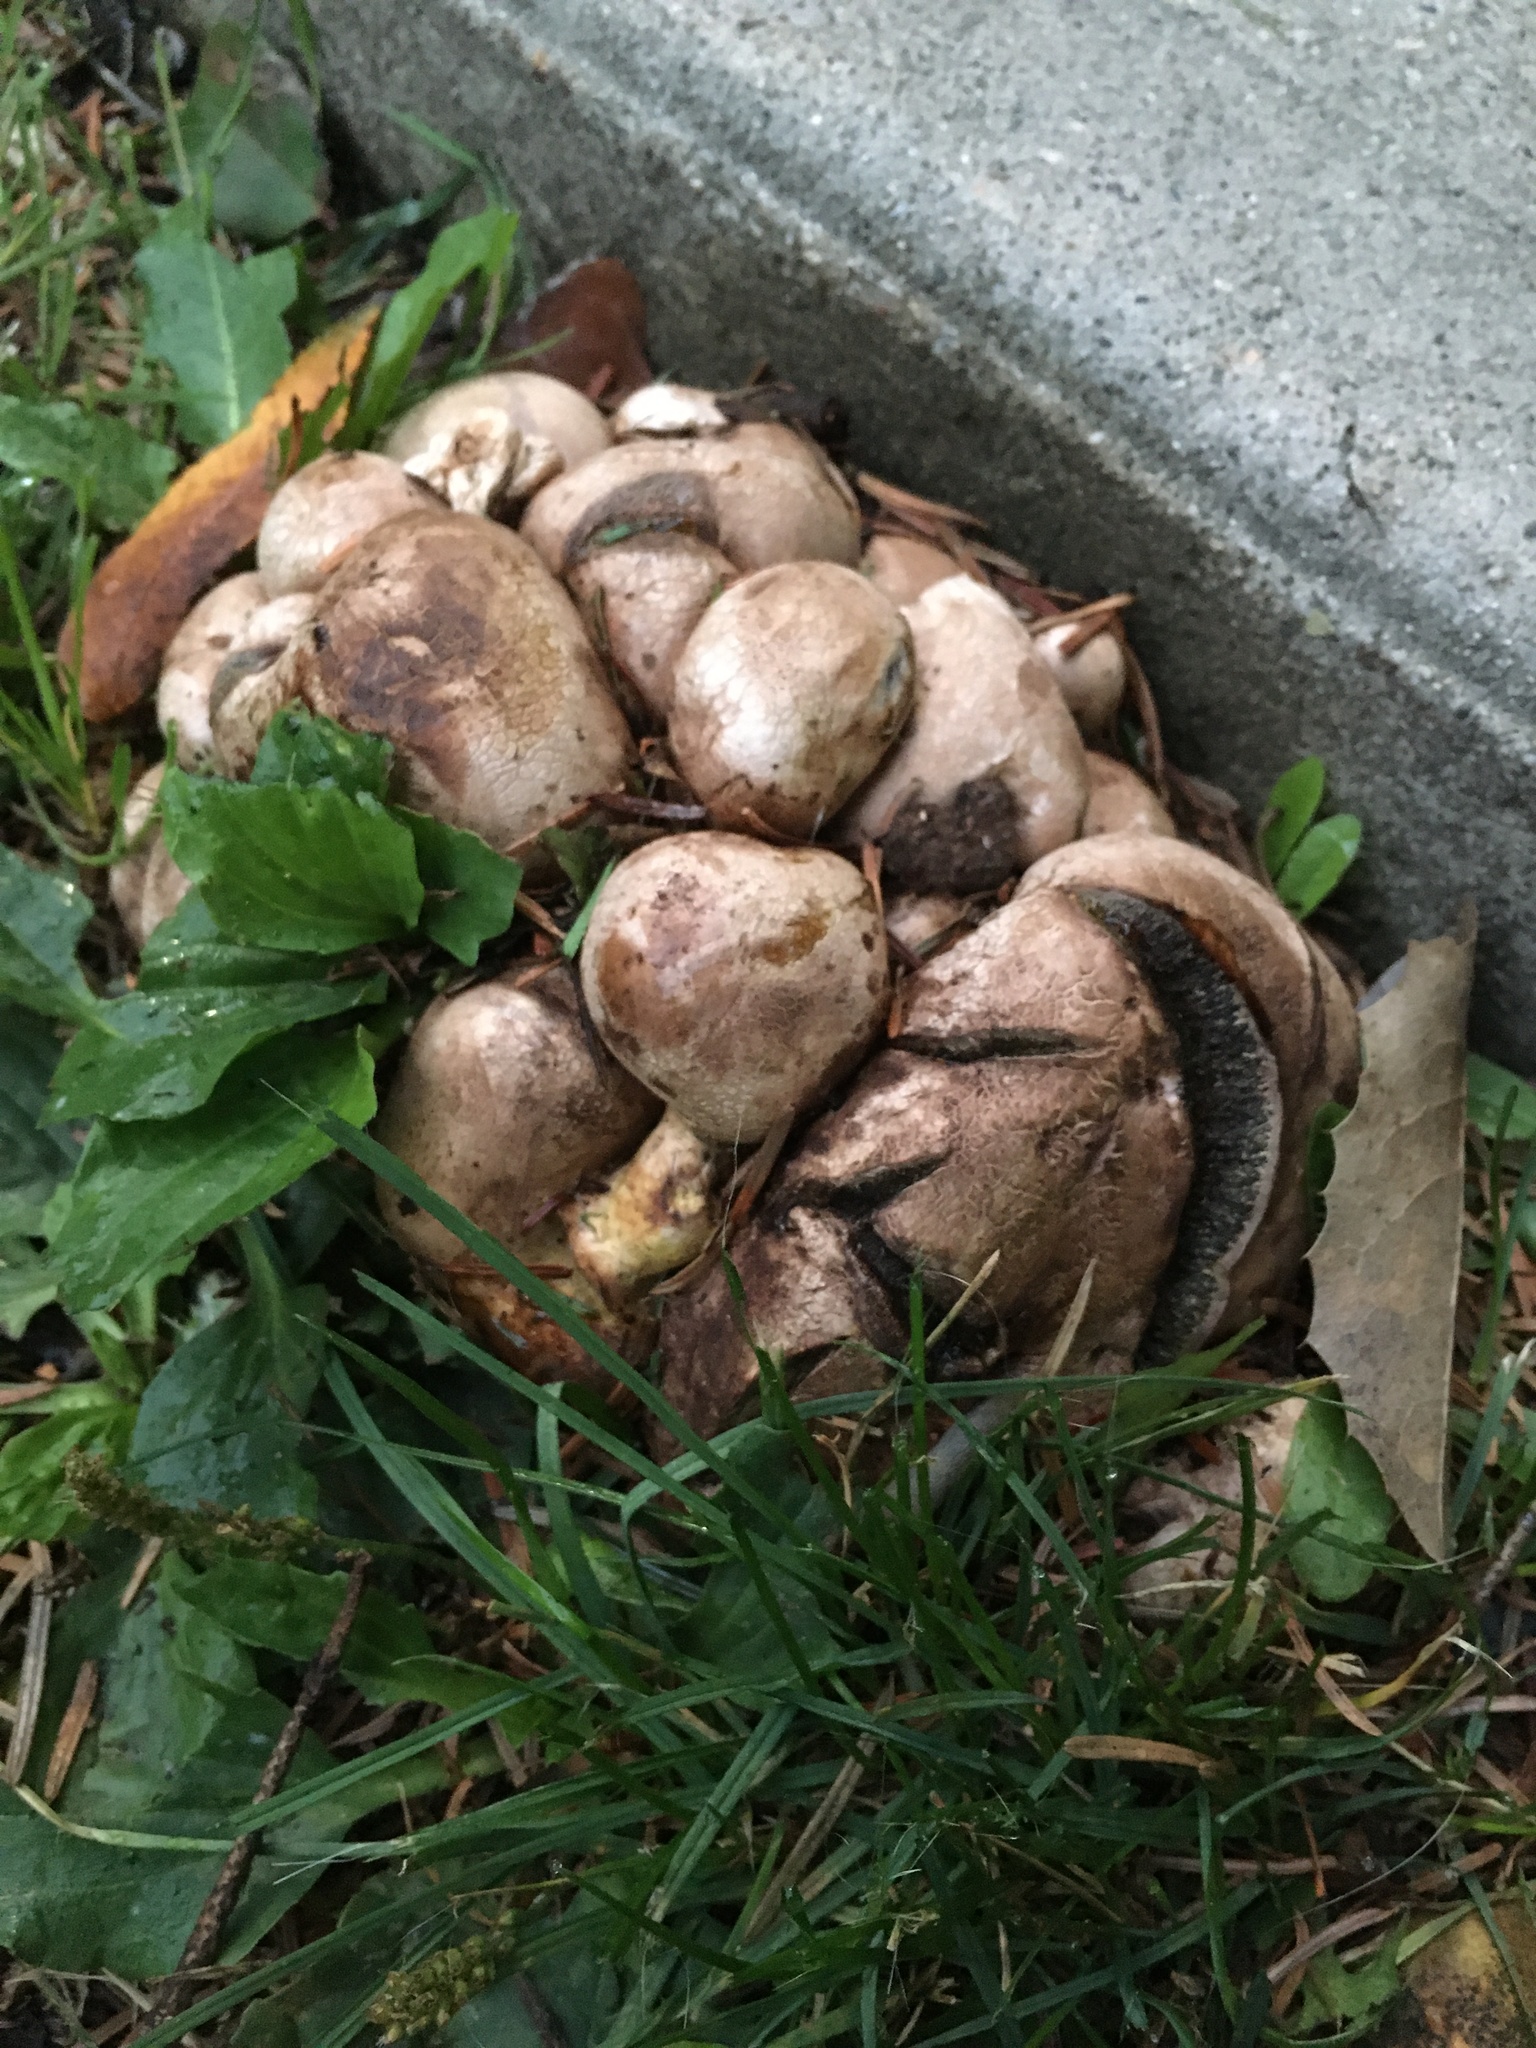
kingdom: Fungi
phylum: Basidiomycota
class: Agaricomycetes
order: Agaricales
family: Psathyrellaceae
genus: Coprinopsis
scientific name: Coprinopsis atramentaria
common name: Common ink-cap
